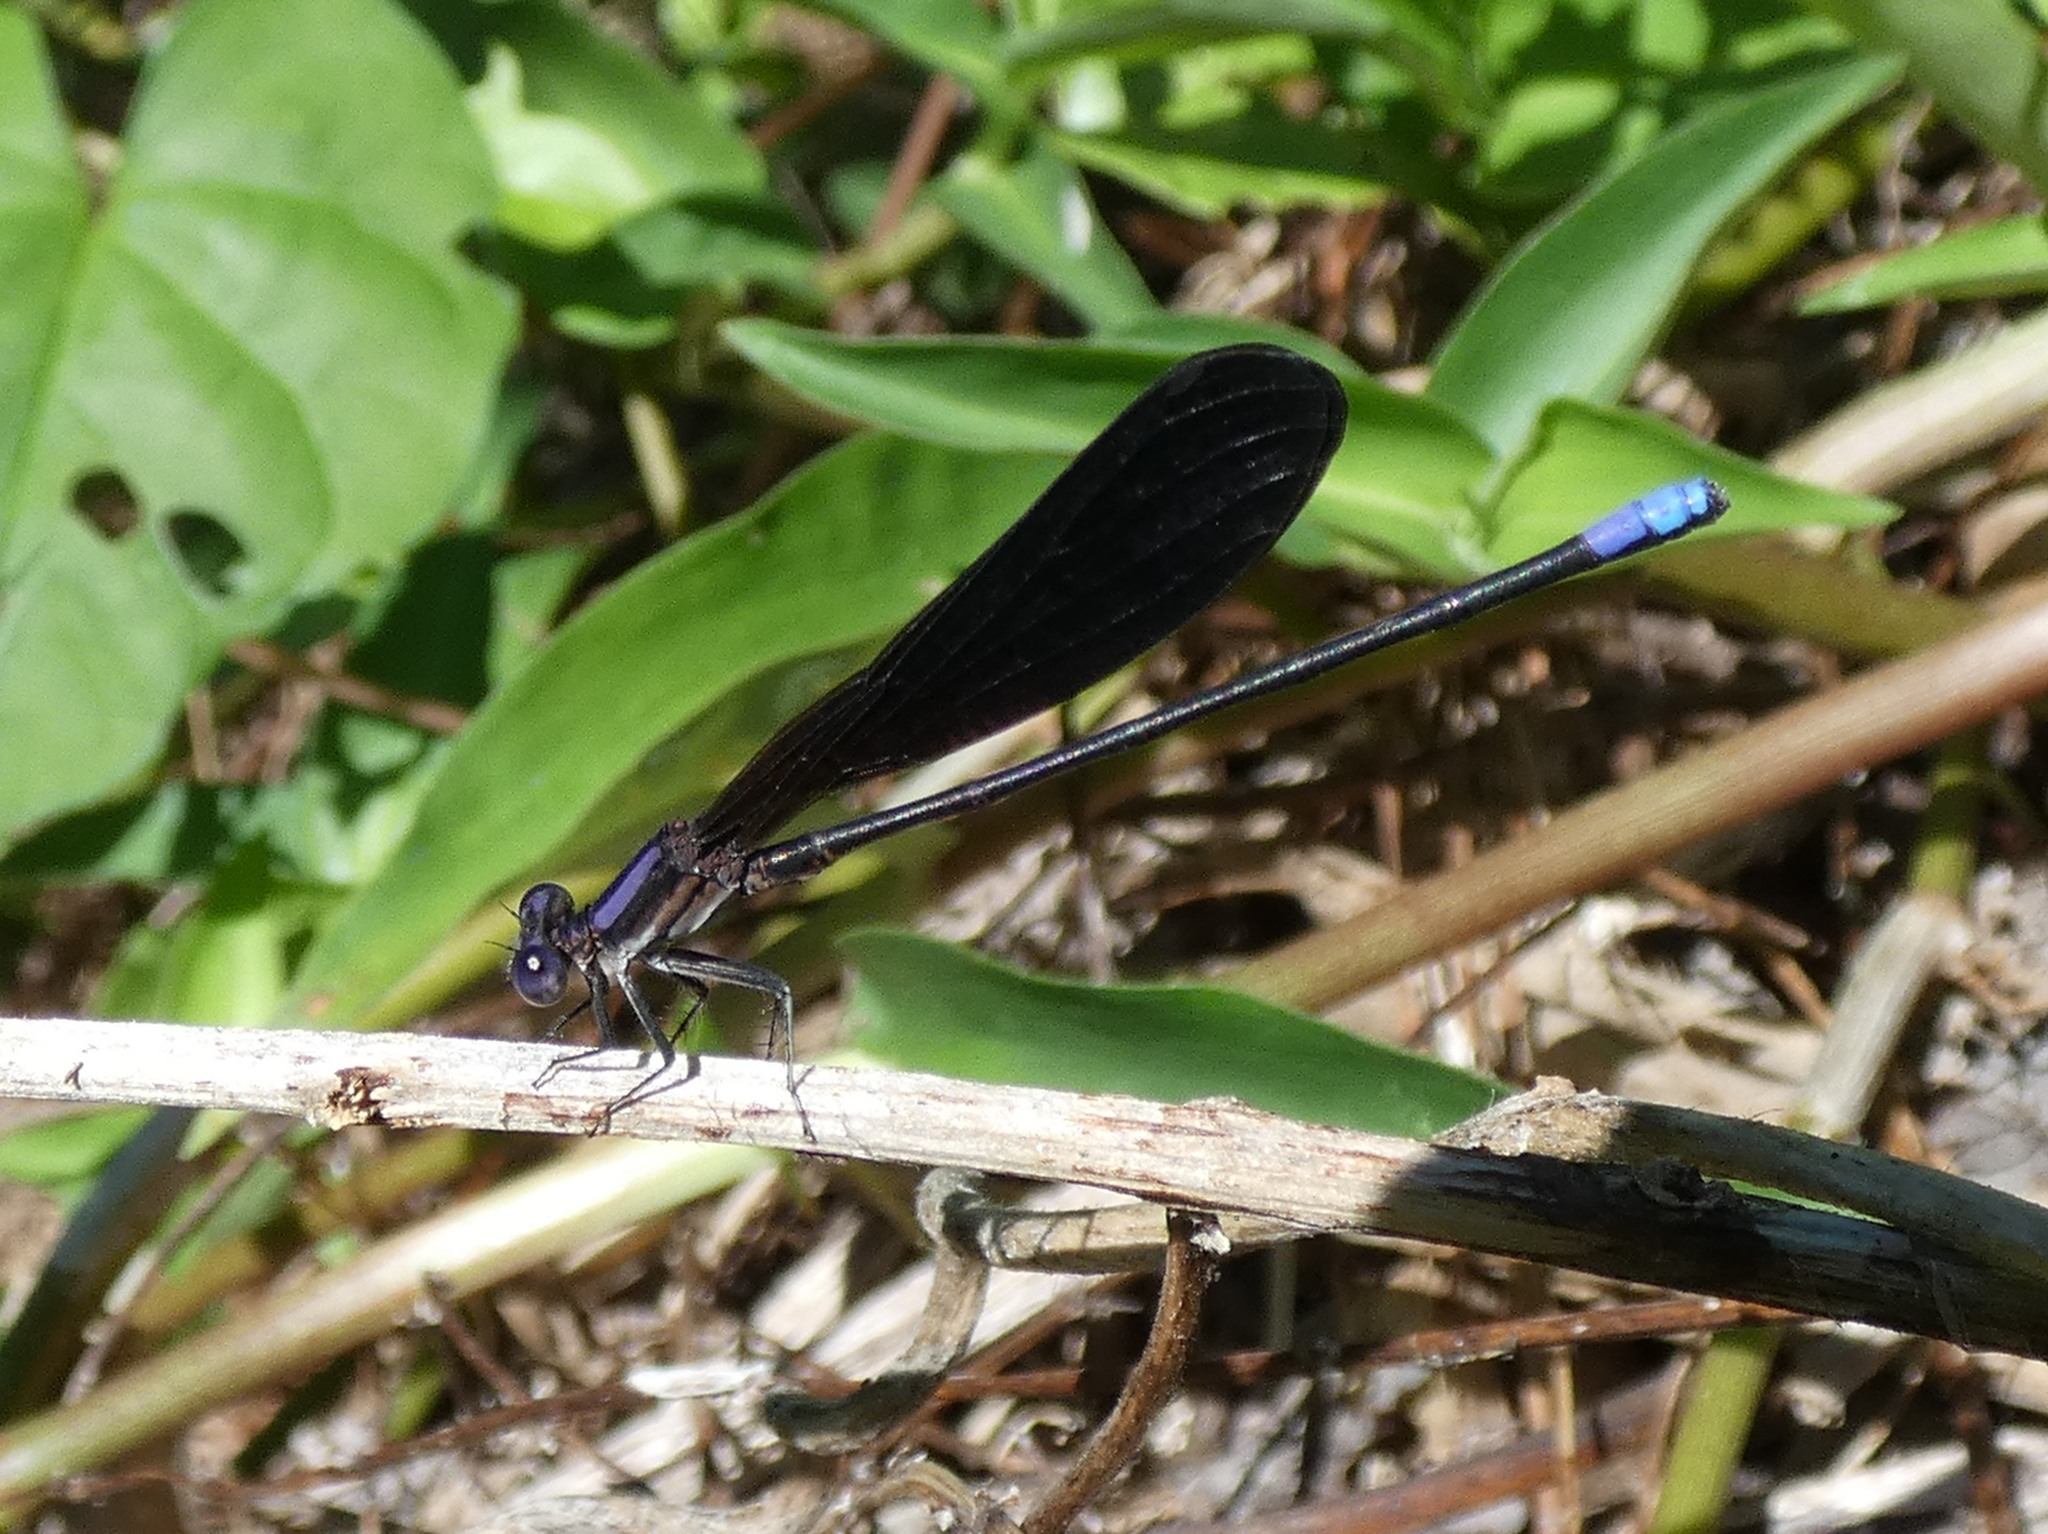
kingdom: Animalia
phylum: Arthropoda
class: Insecta
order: Odonata
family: Coenagrionidae
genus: Argia
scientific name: Argia fumipennis
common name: Variable dancer
